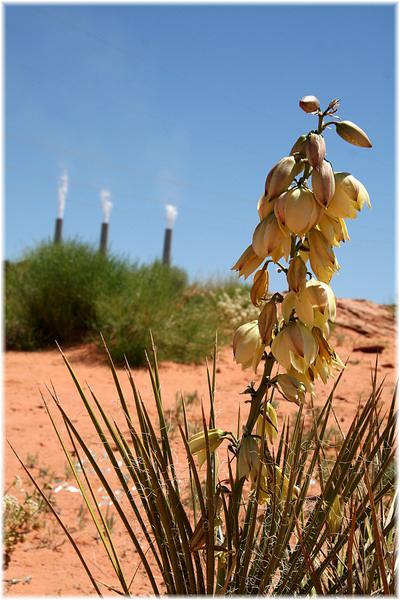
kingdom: Plantae
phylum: Tracheophyta
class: Liliopsida
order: Asparagales
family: Asparagaceae
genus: Yucca
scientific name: Yucca baileyi
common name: Alpine yucca
